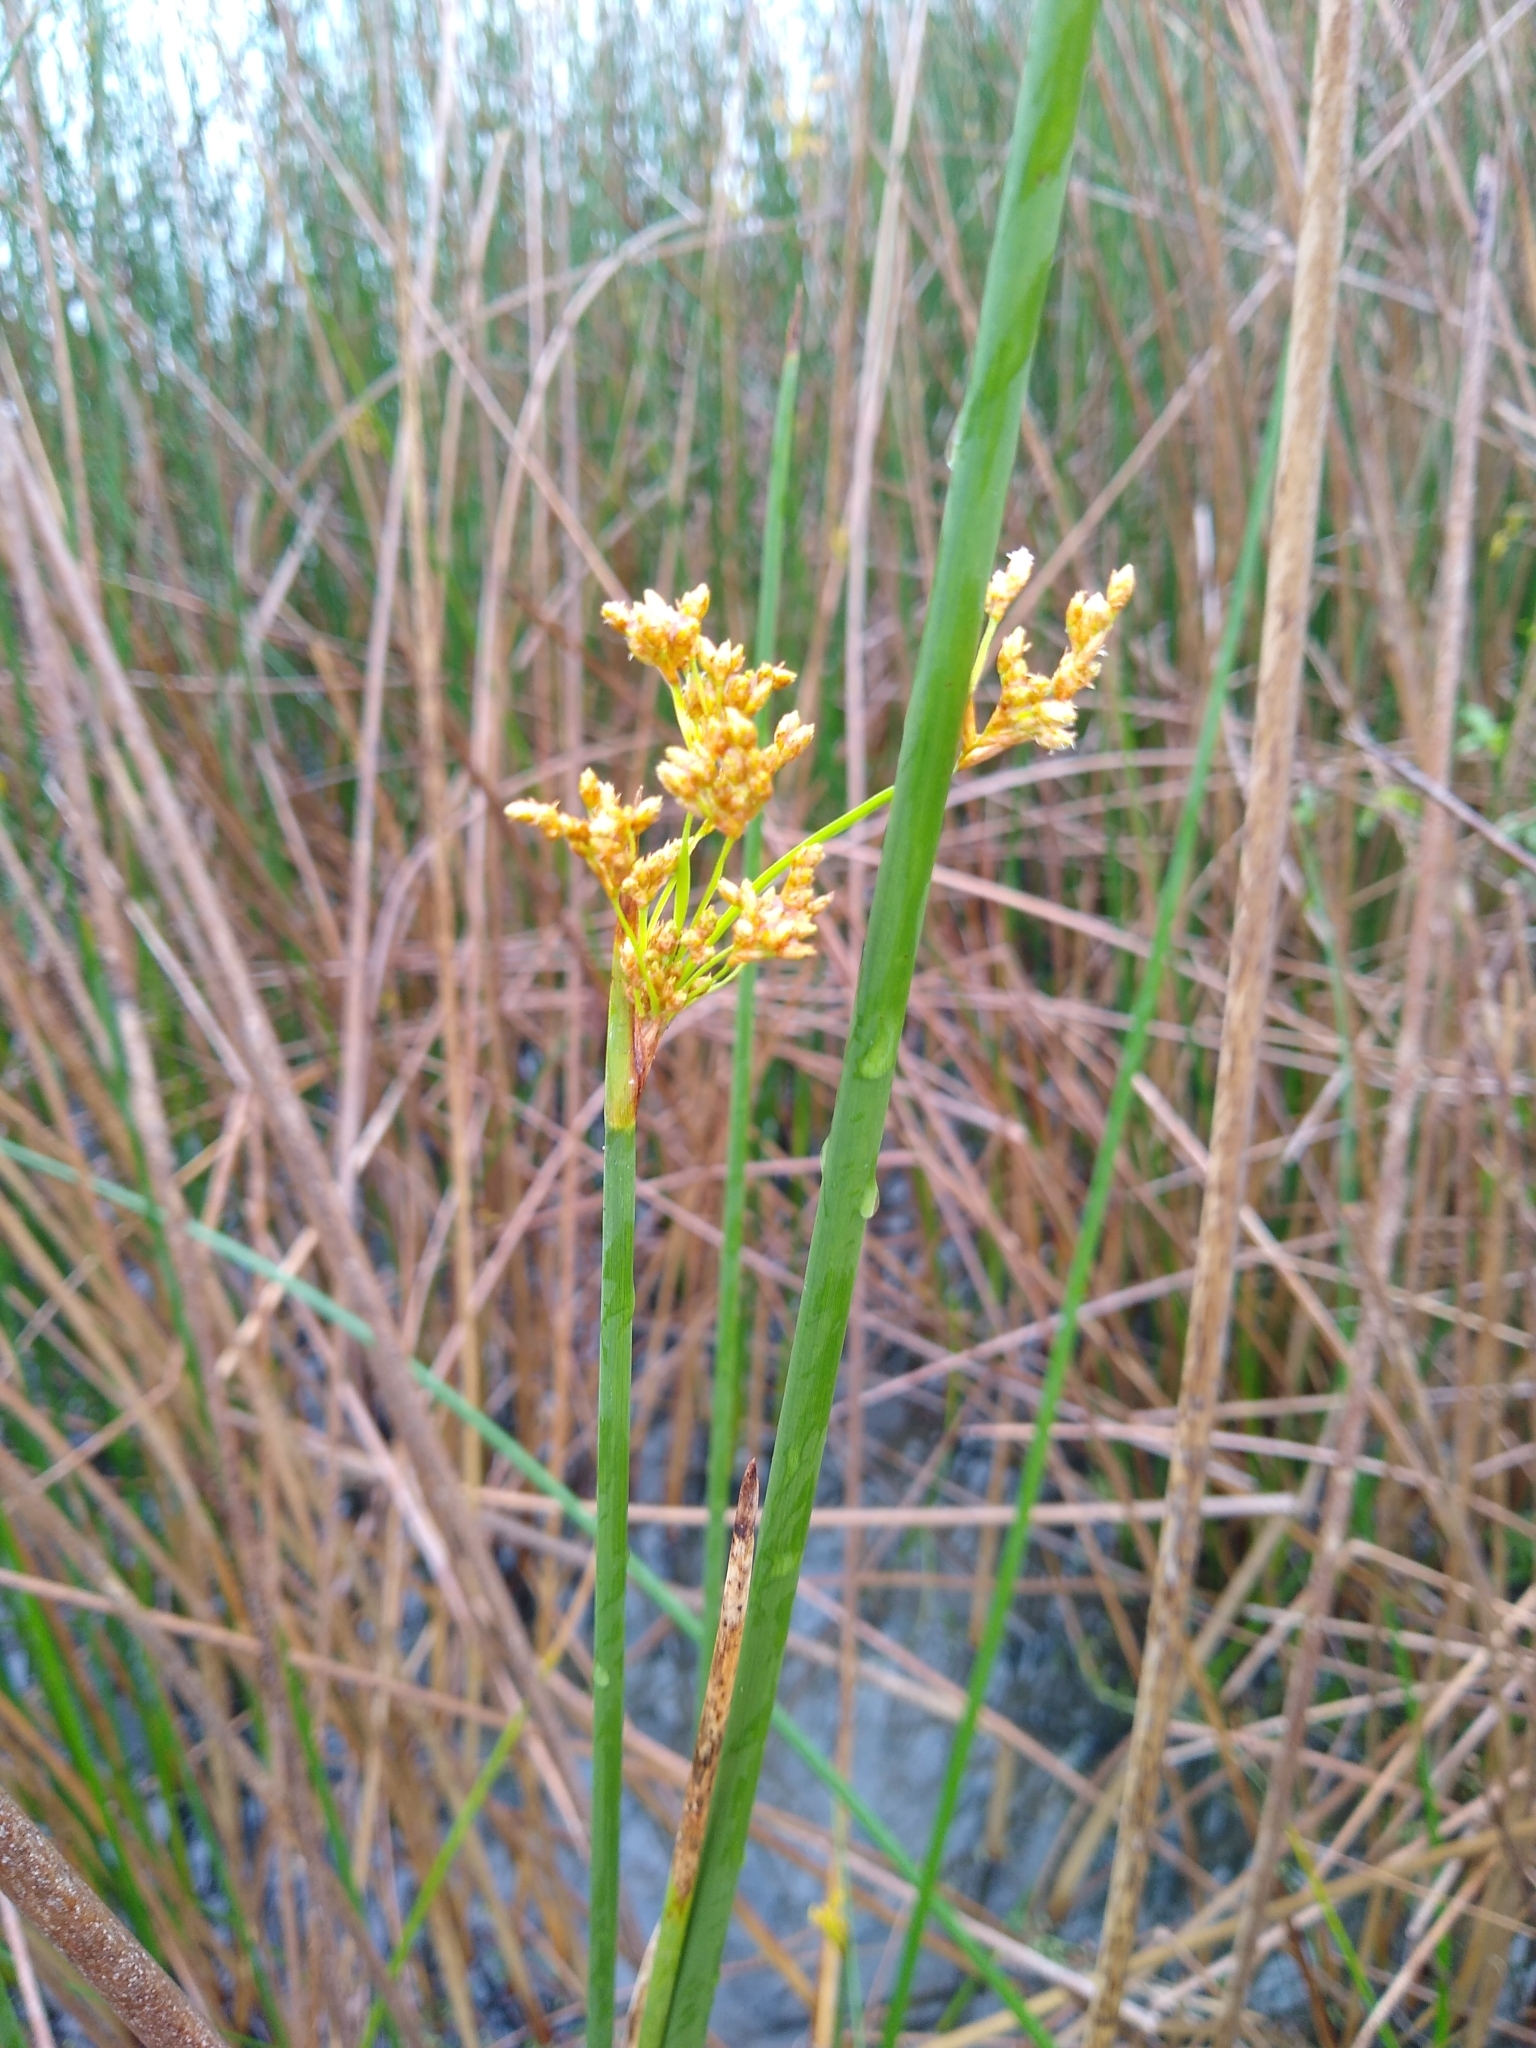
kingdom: Plantae
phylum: Tracheophyta
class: Liliopsida
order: Poales
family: Cyperaceae
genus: Schoenoplectus
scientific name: Schoenoplectus tabernaemontani
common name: Grey club-rush
